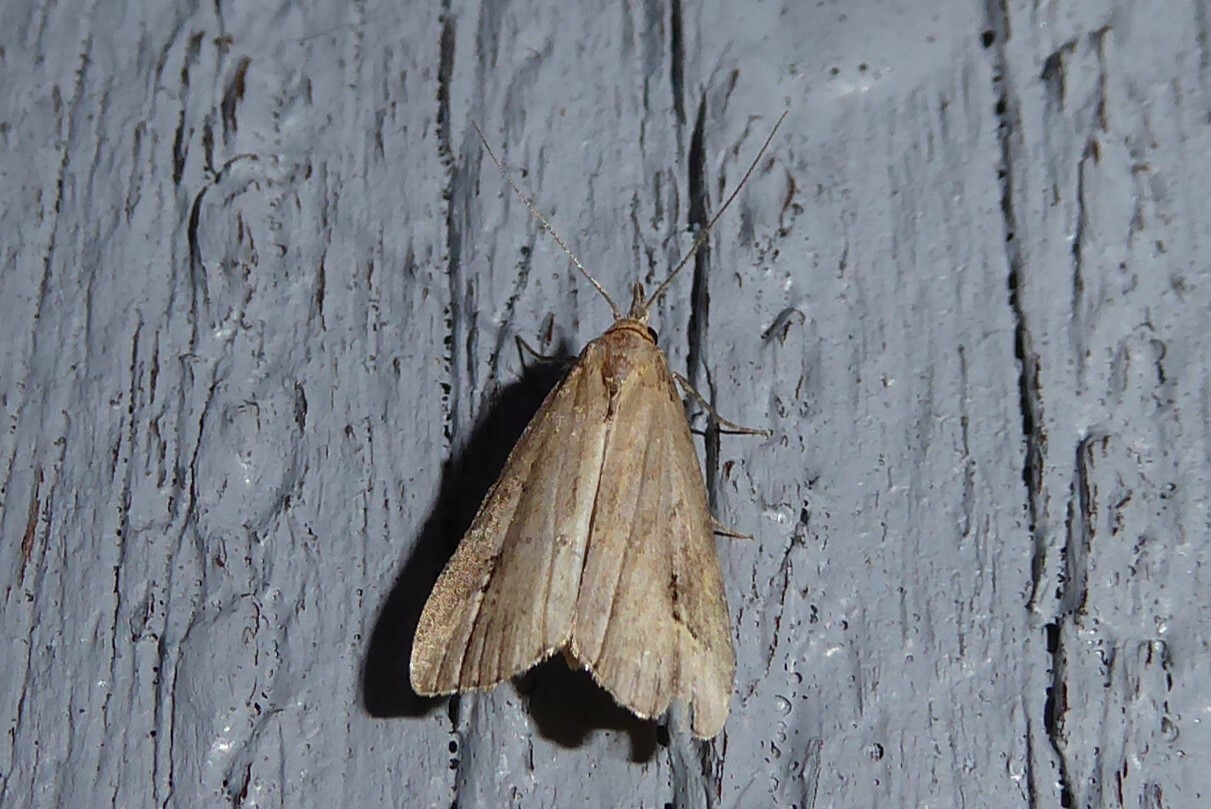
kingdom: Animalia
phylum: Arthropoda
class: Insecta
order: Lepidoptera
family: Erebidae
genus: Schrankia
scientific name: Schrankia costaestrigalis
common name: Pinion-streaked snout
